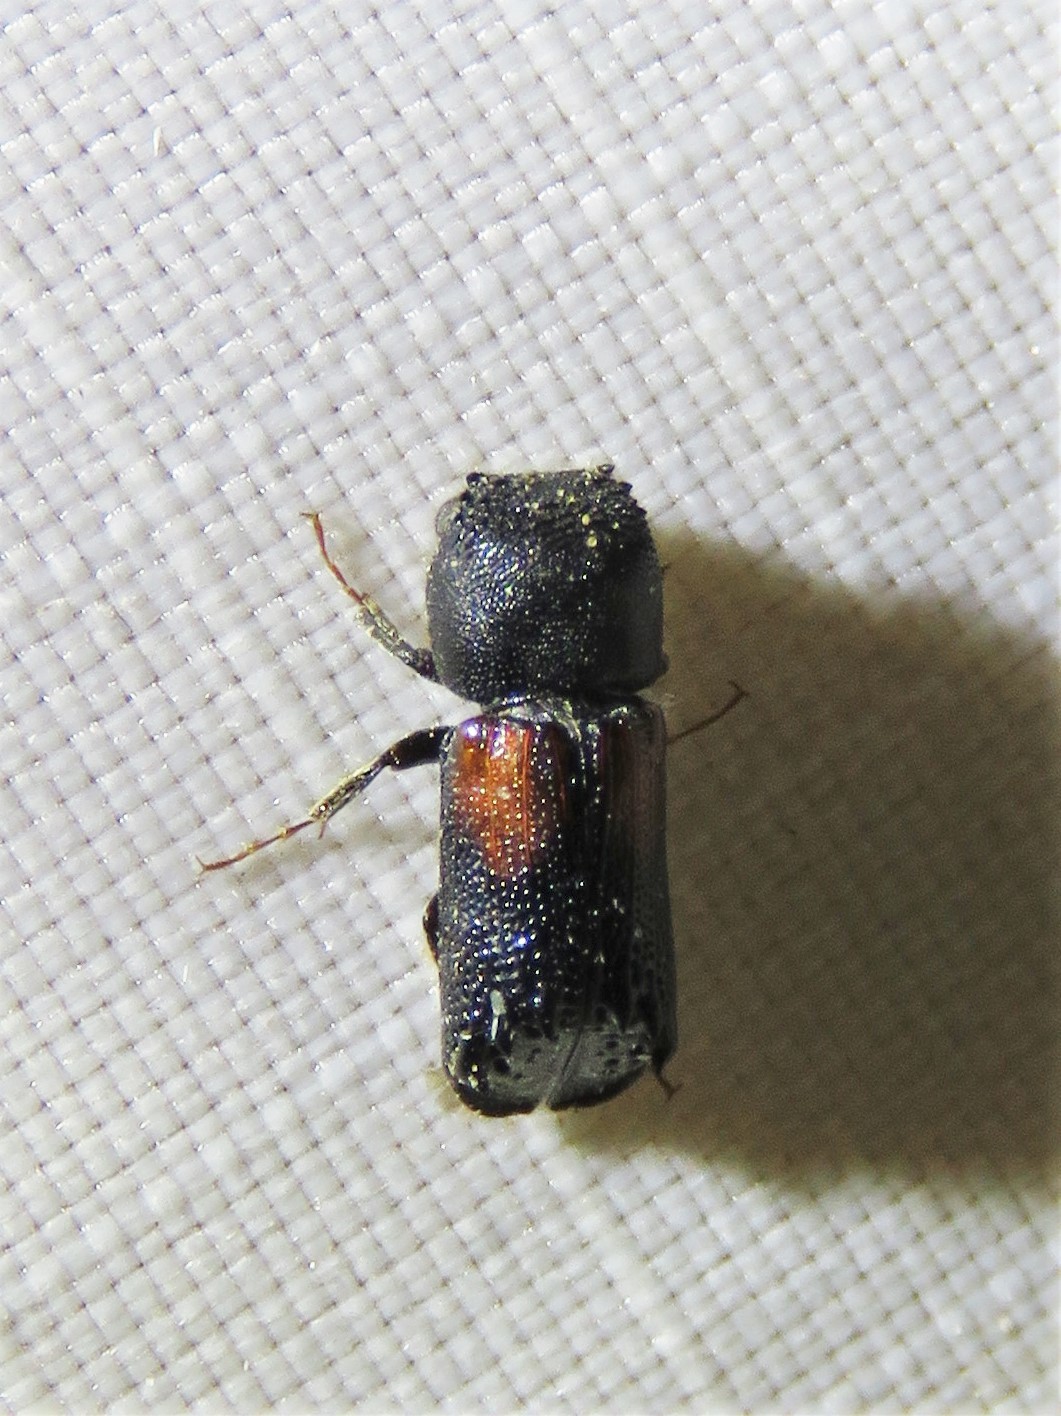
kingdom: Animalia
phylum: Arthropoda
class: Insecta
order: Coleoptera
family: Bostrichidae
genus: Xylobiops
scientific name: Xylobiops basilaris
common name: Red-shouldered bostrichid
